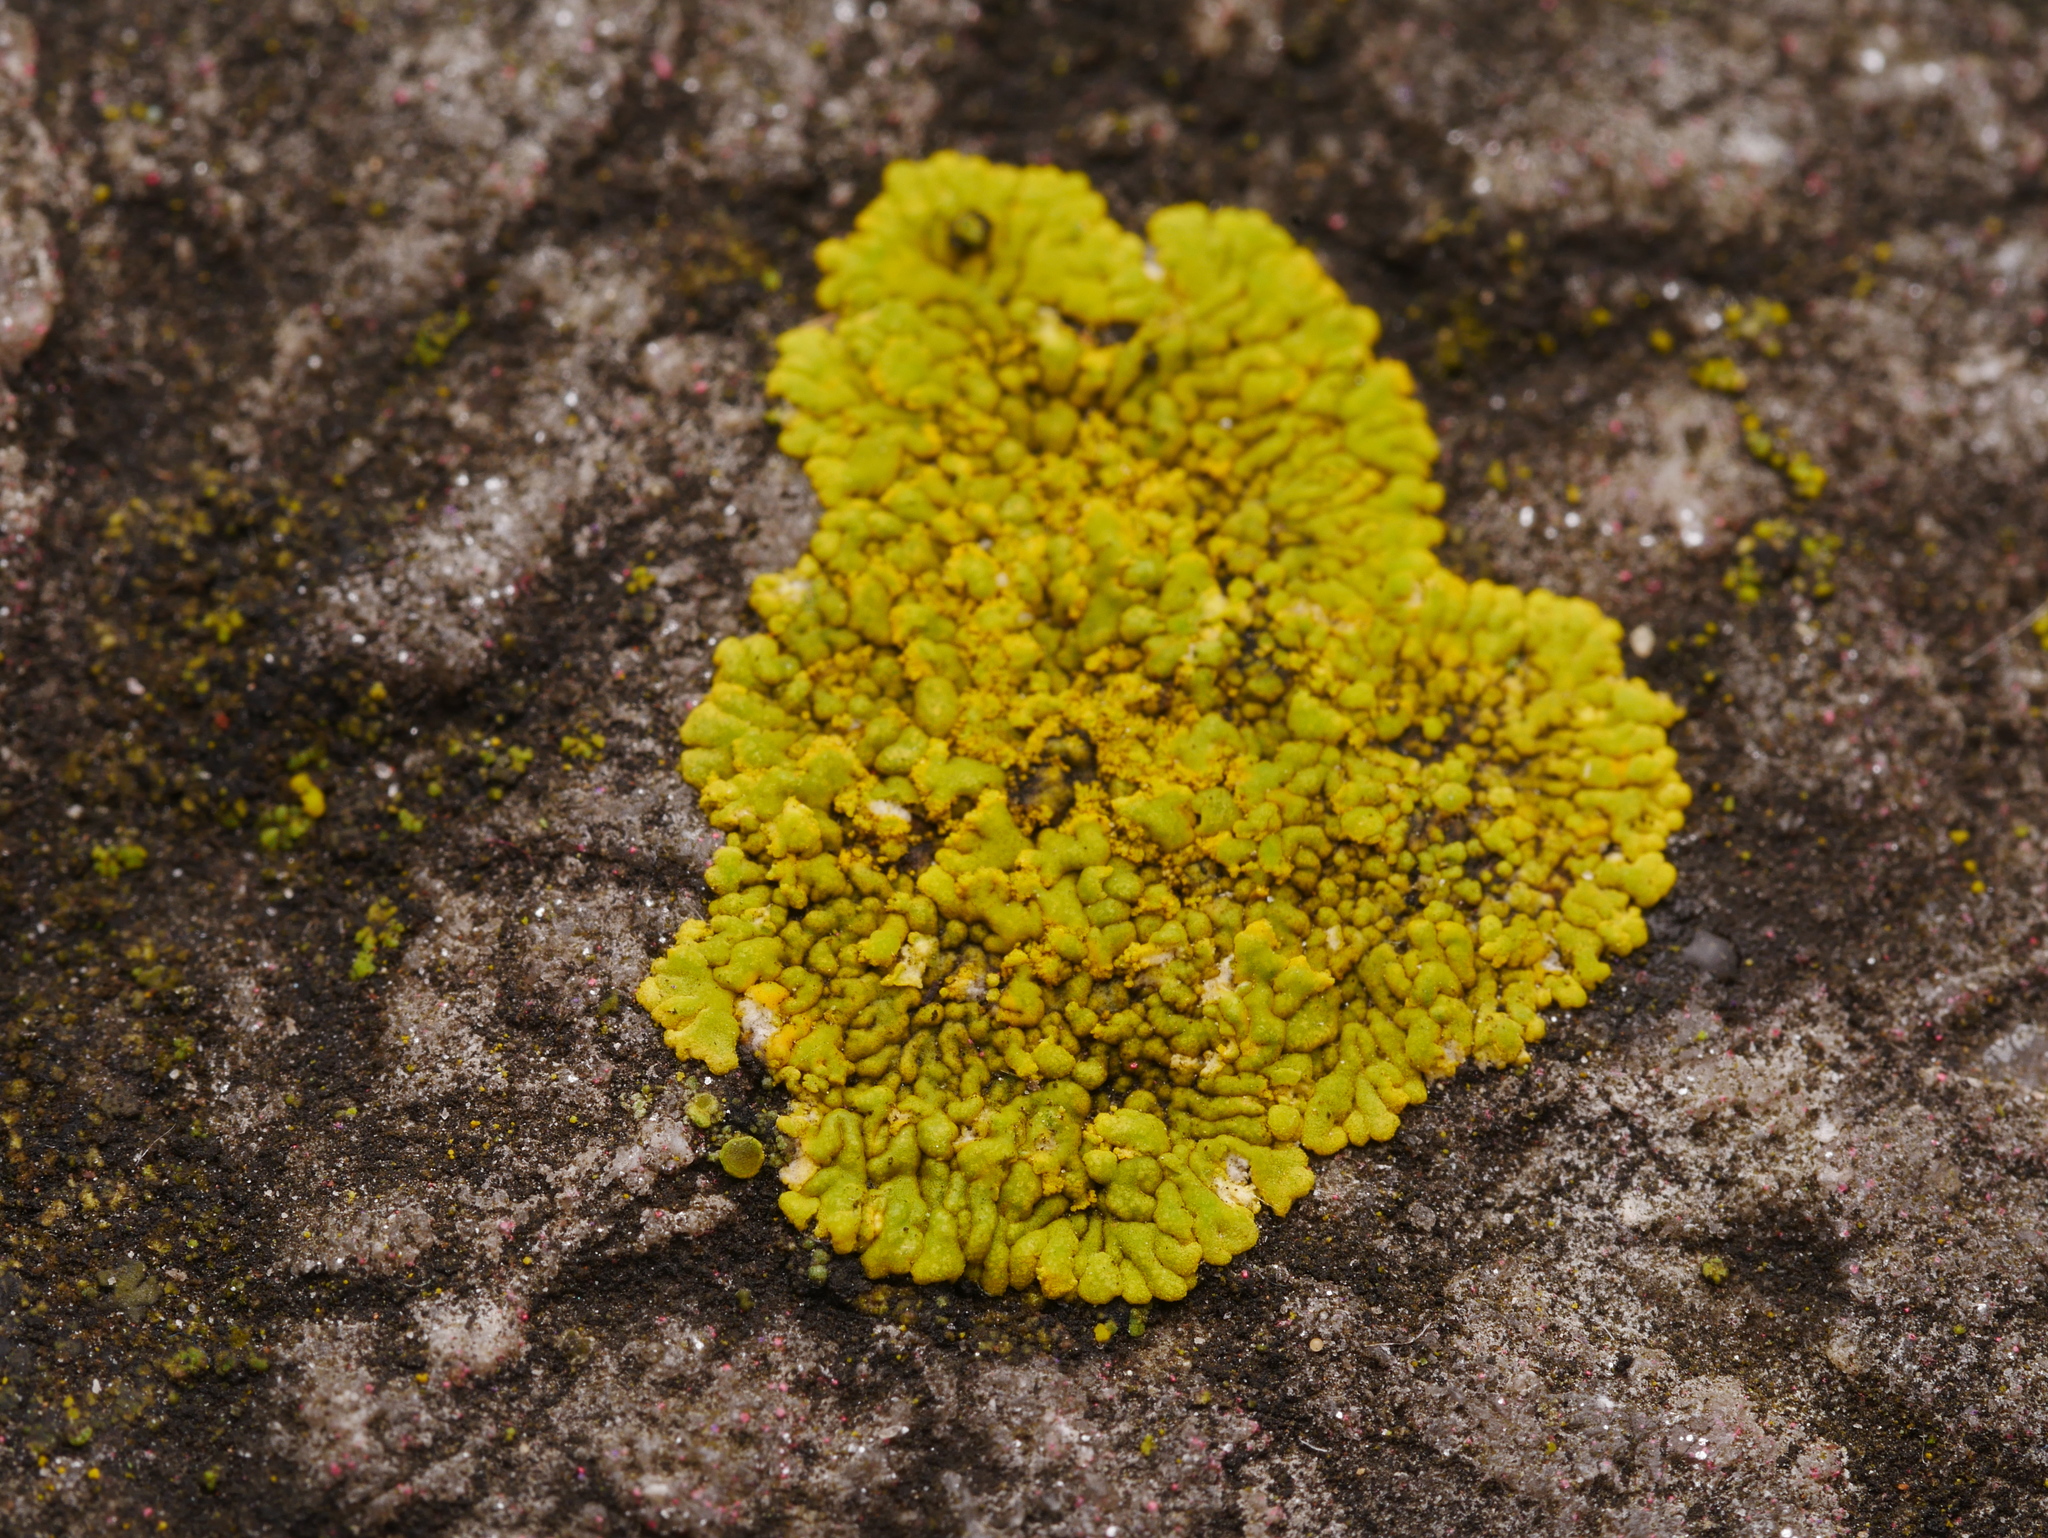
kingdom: Fungi
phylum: Ascomycota
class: Lecanoromycetes
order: Teloschistales
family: Teloschistaceae
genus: Calogaya
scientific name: Calogaya decipiens
